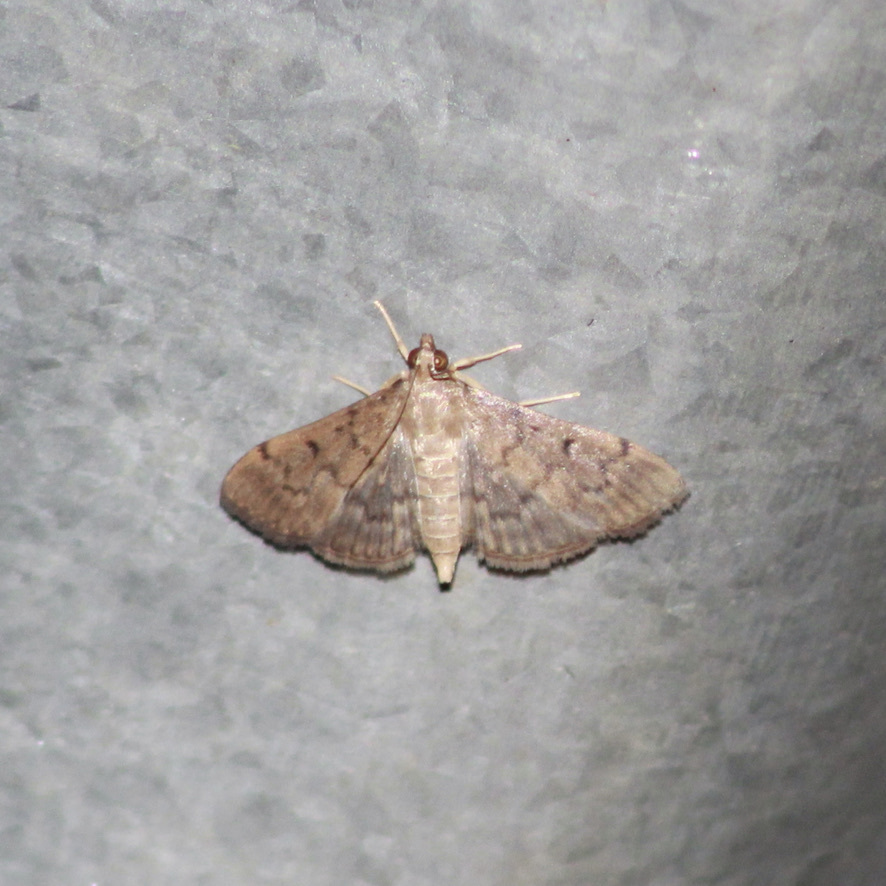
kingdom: Animalia
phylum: Arthropoda
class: Insecta
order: Lepidoptera
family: Crambidae
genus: Herpetogramma
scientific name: Herpetogramma phaeopteralis
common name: Dusky herpetogramma moth
